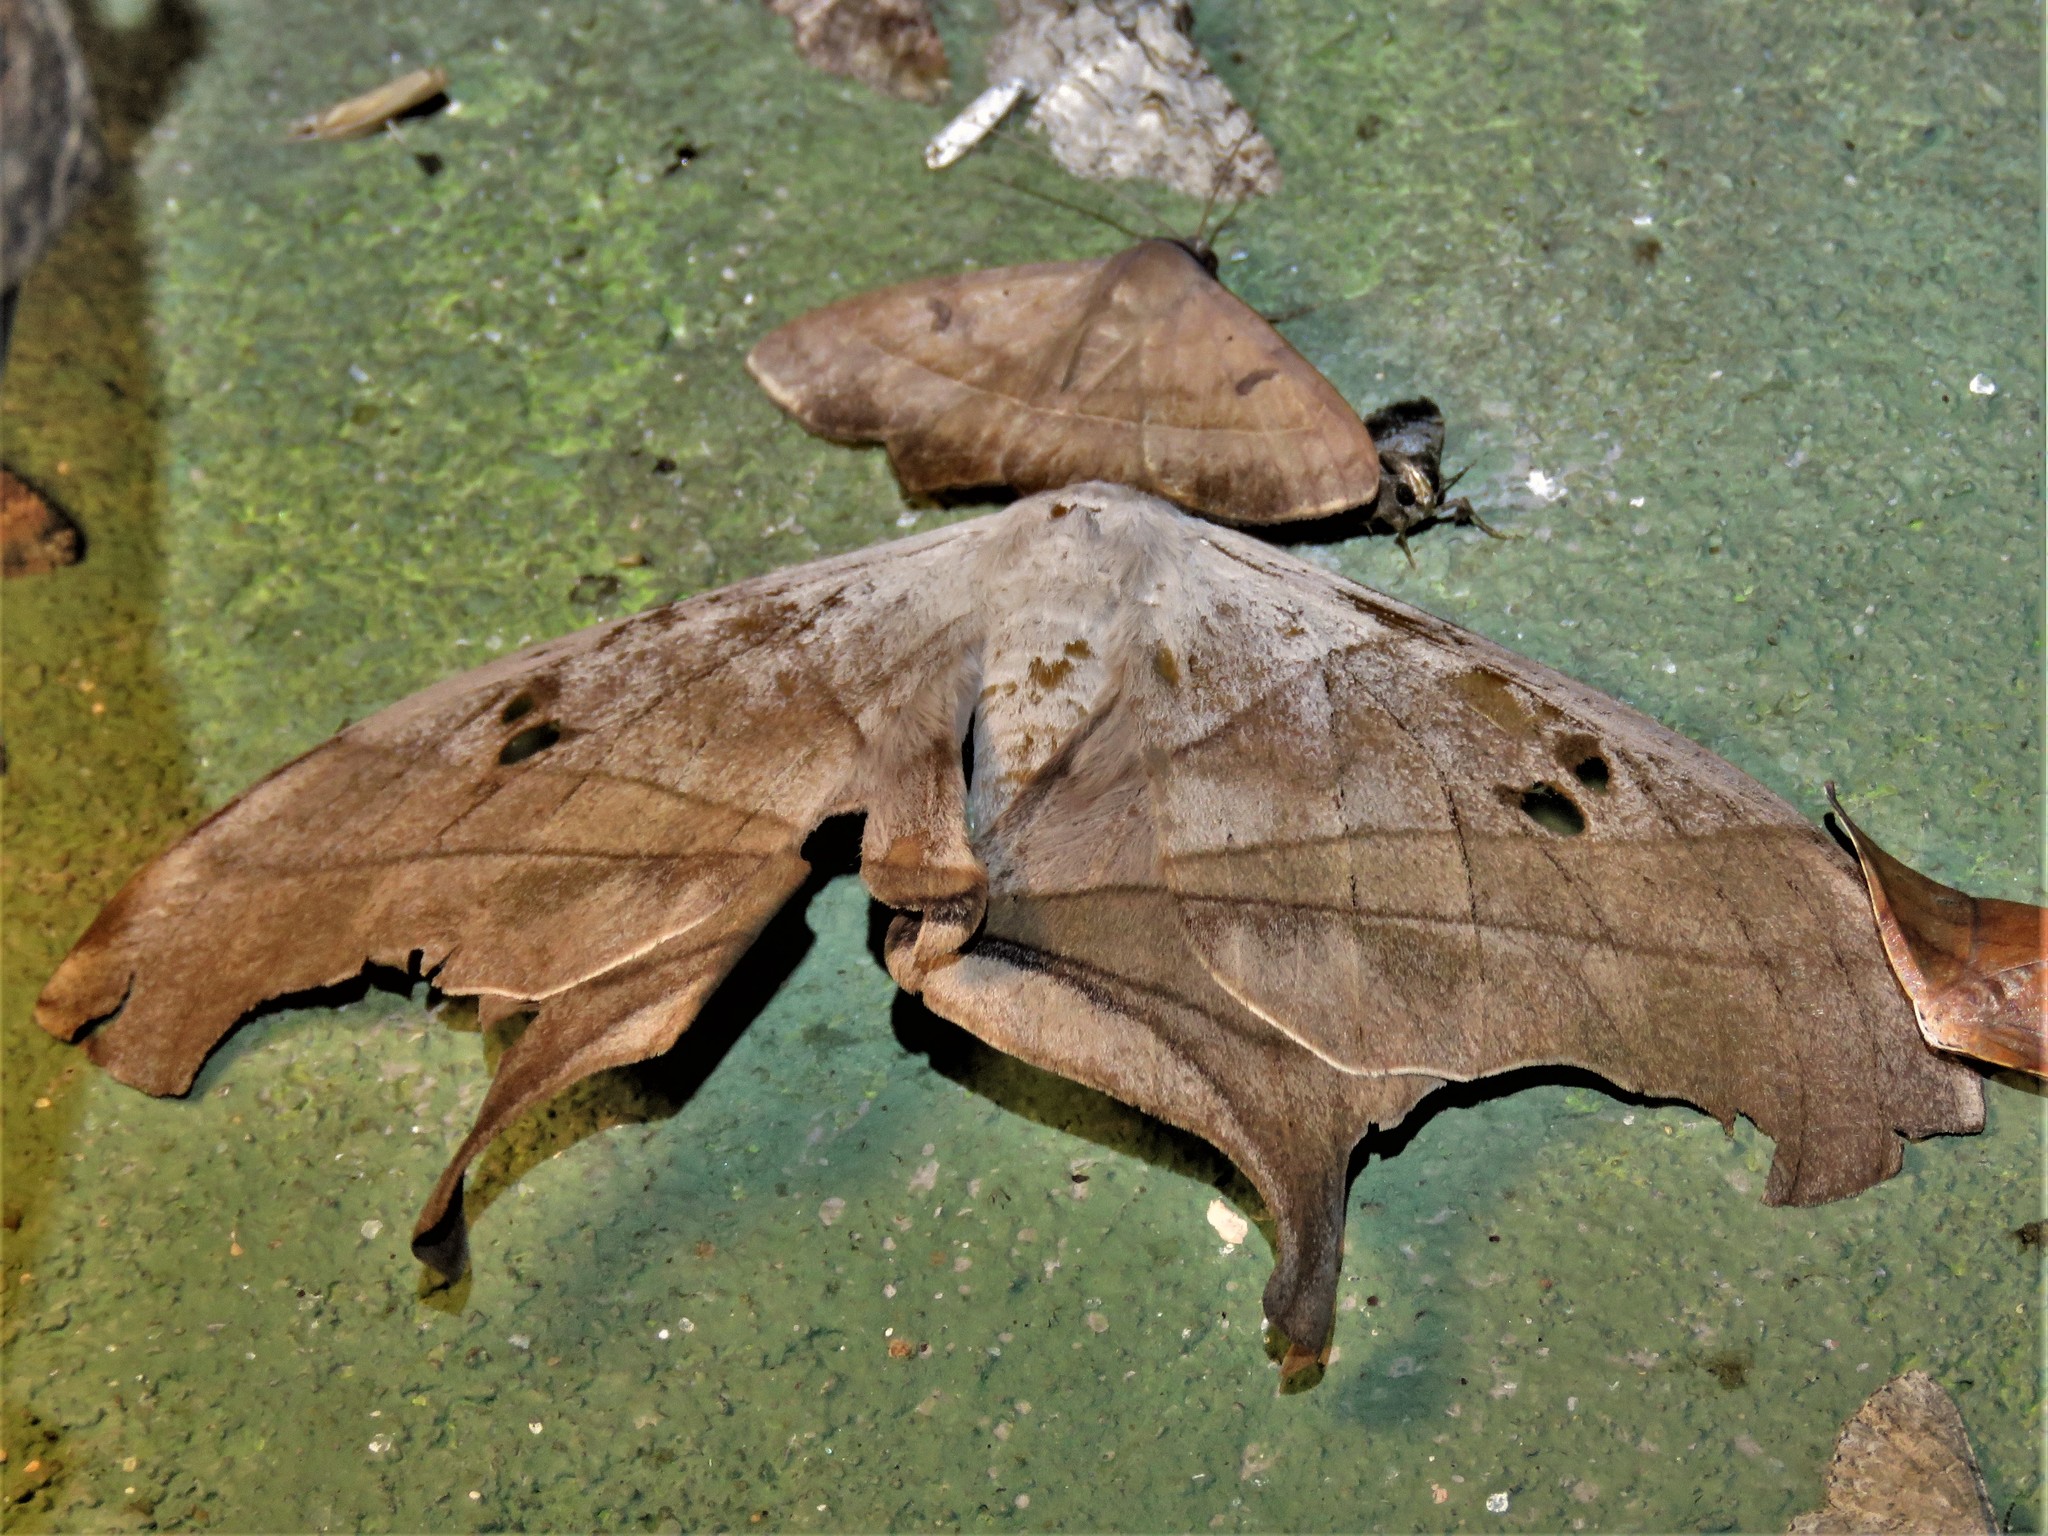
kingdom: Animalia
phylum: Arthropoda
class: Insecta
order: Lepidoptera
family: Saturniidae
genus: Dysdaemonia
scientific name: Dysdaemonia boreas
